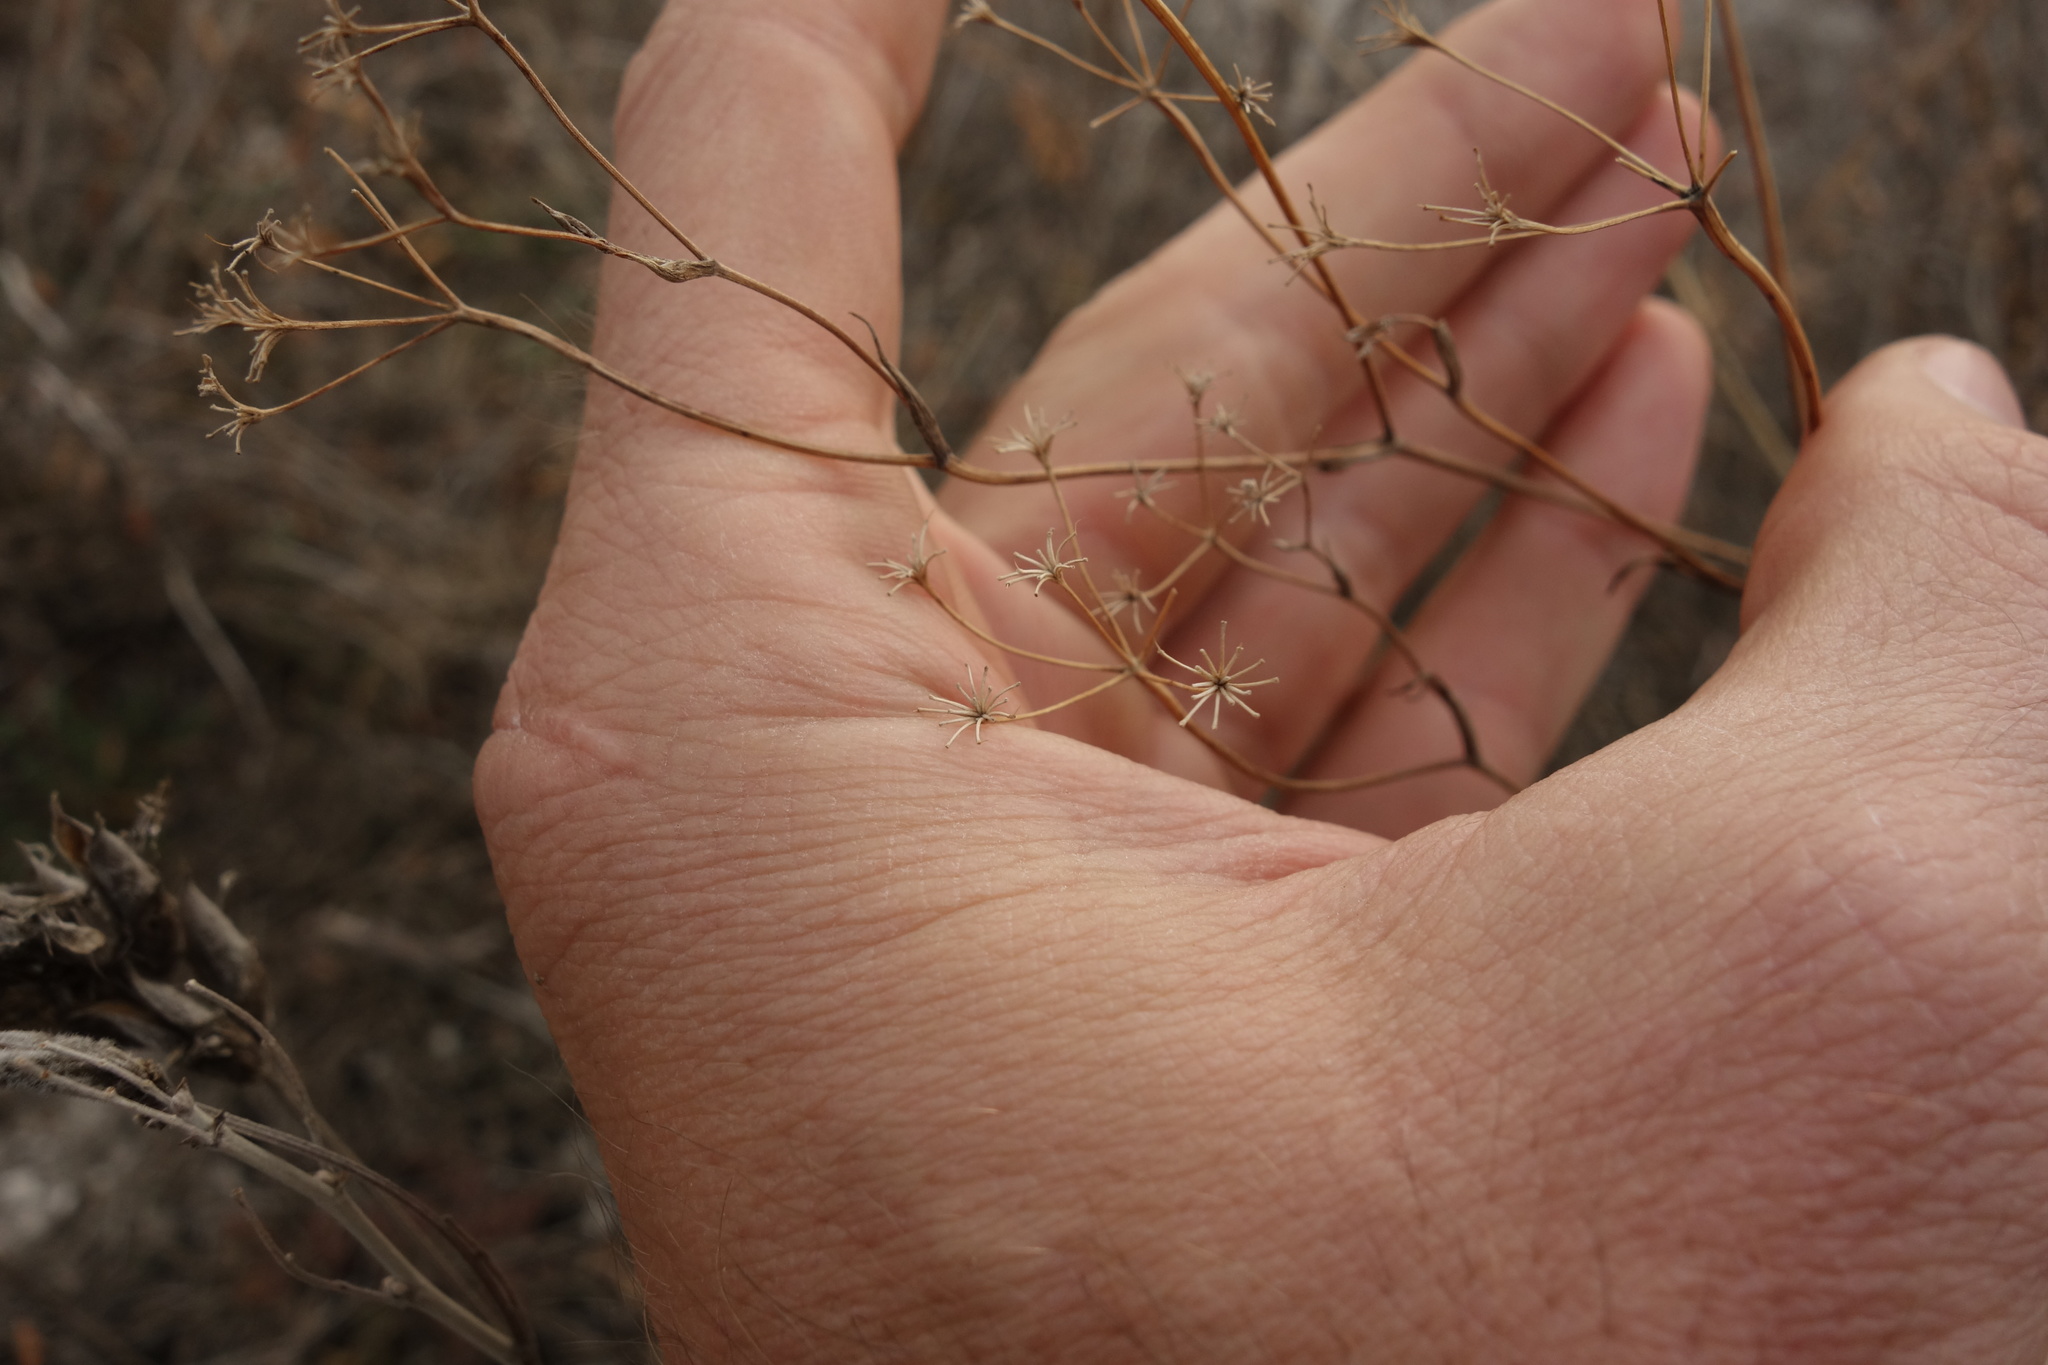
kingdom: Plantae
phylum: Tracheophyta
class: Magnoliopsida
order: Apiales
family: Apiaceae
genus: Pimpinella
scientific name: Pimpinella tragium
